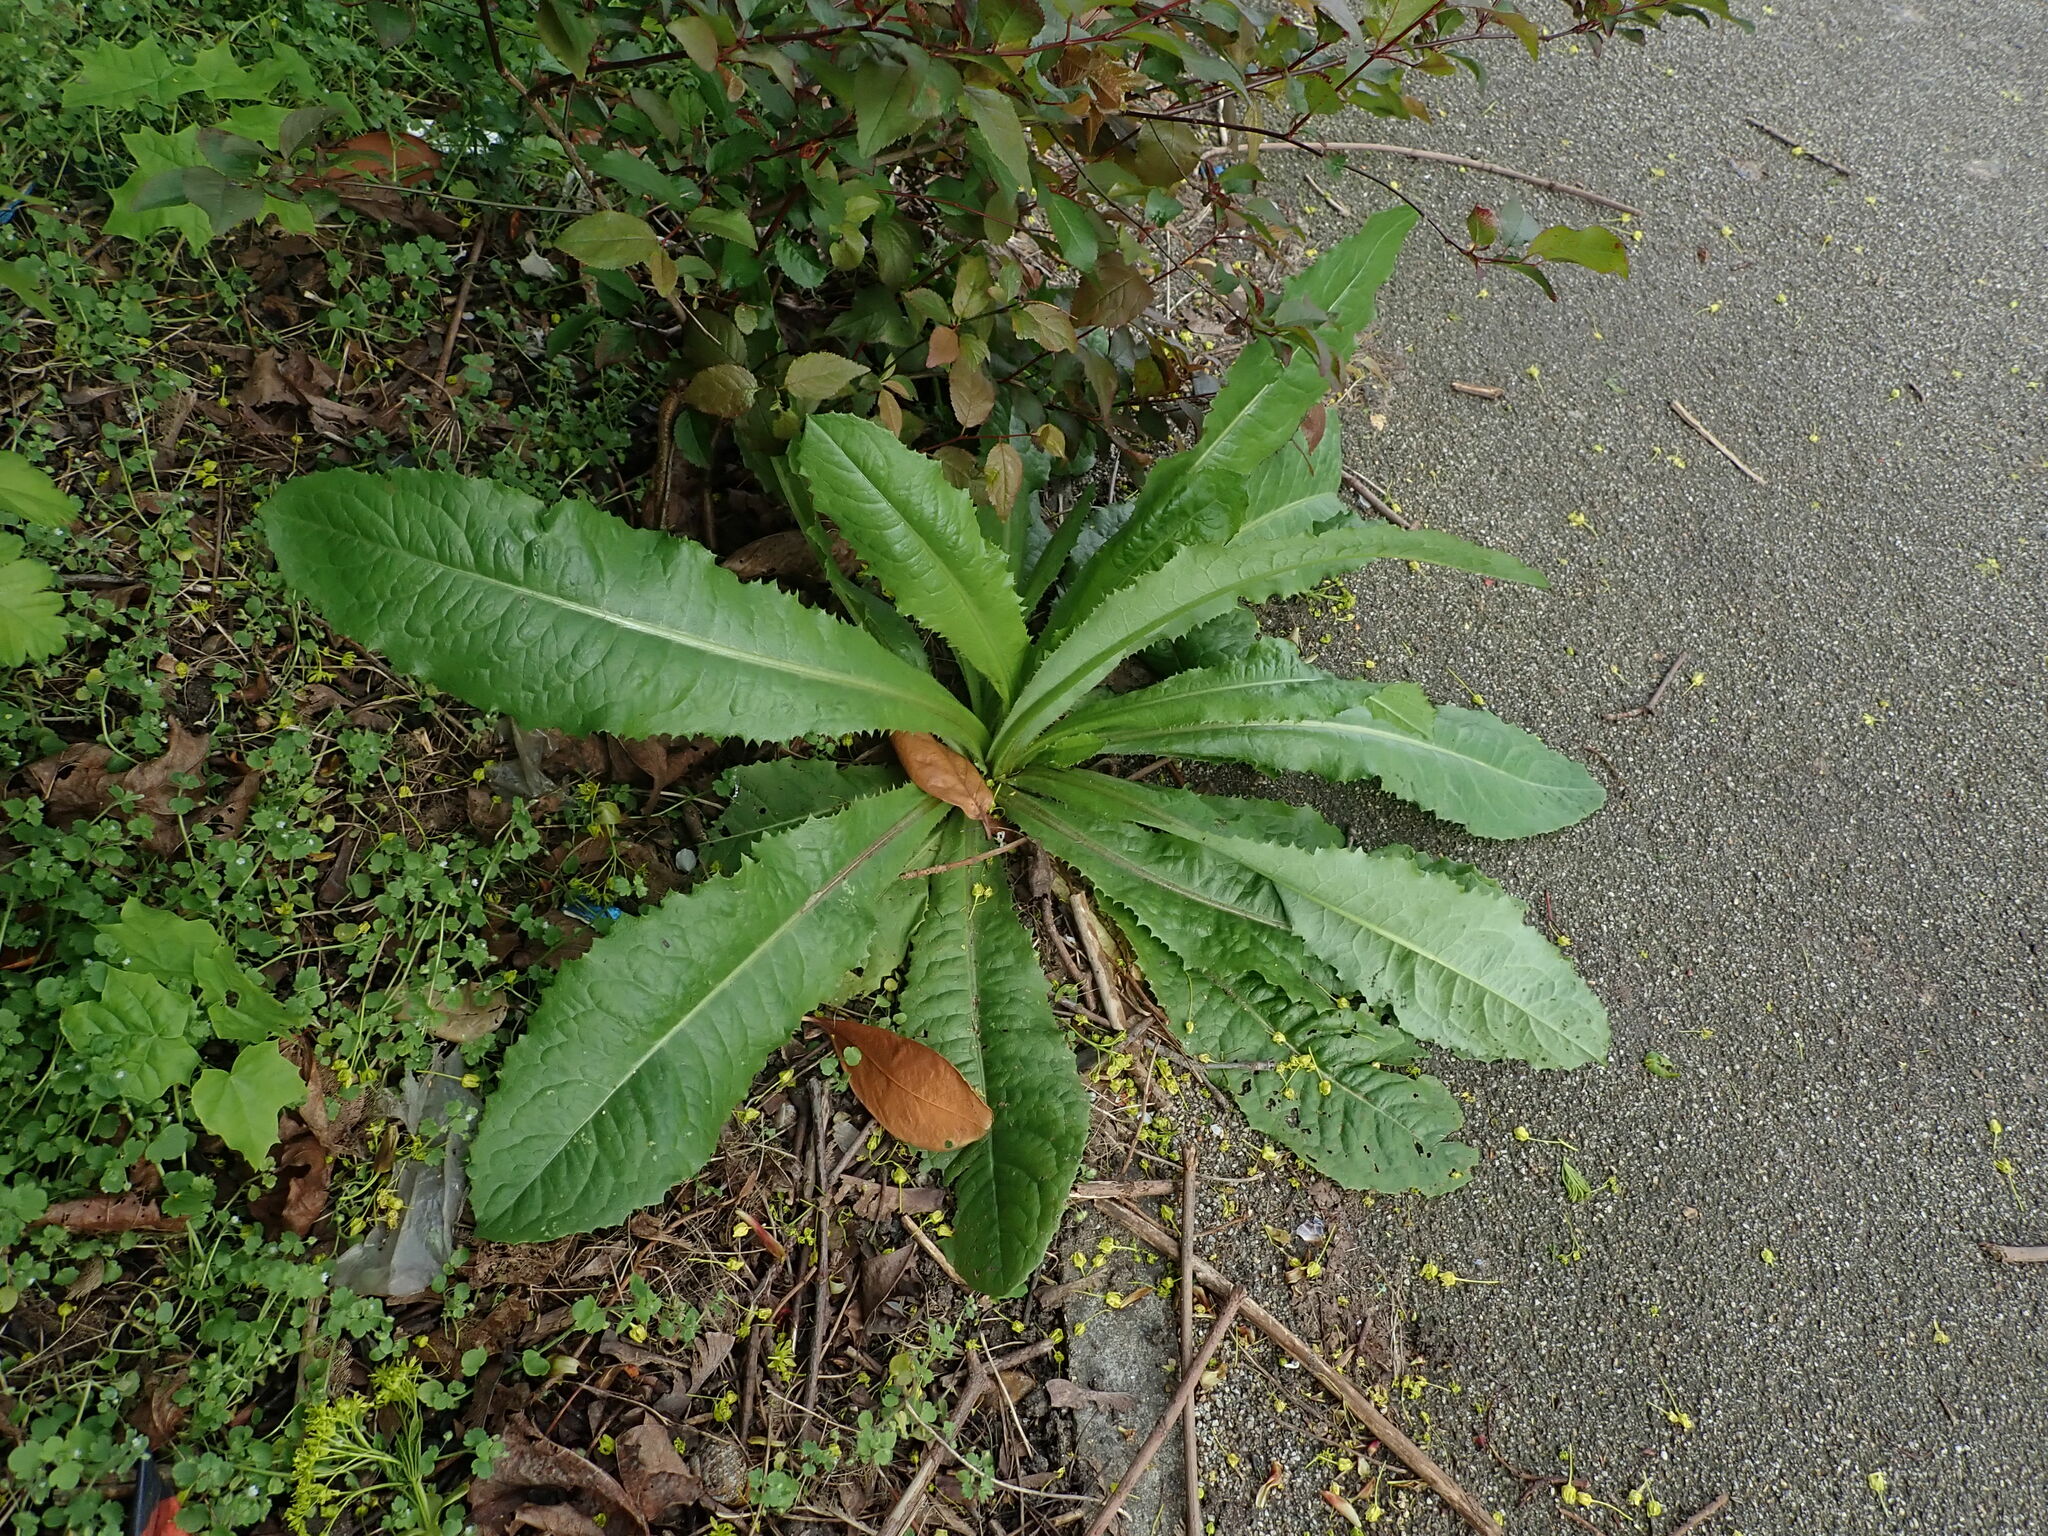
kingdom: Plantae
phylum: Tracheophyta
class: Magnoliopsida
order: Asterales
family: Asteraceae
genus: Lactuca
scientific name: Lactuca virosa
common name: Great lettuce
